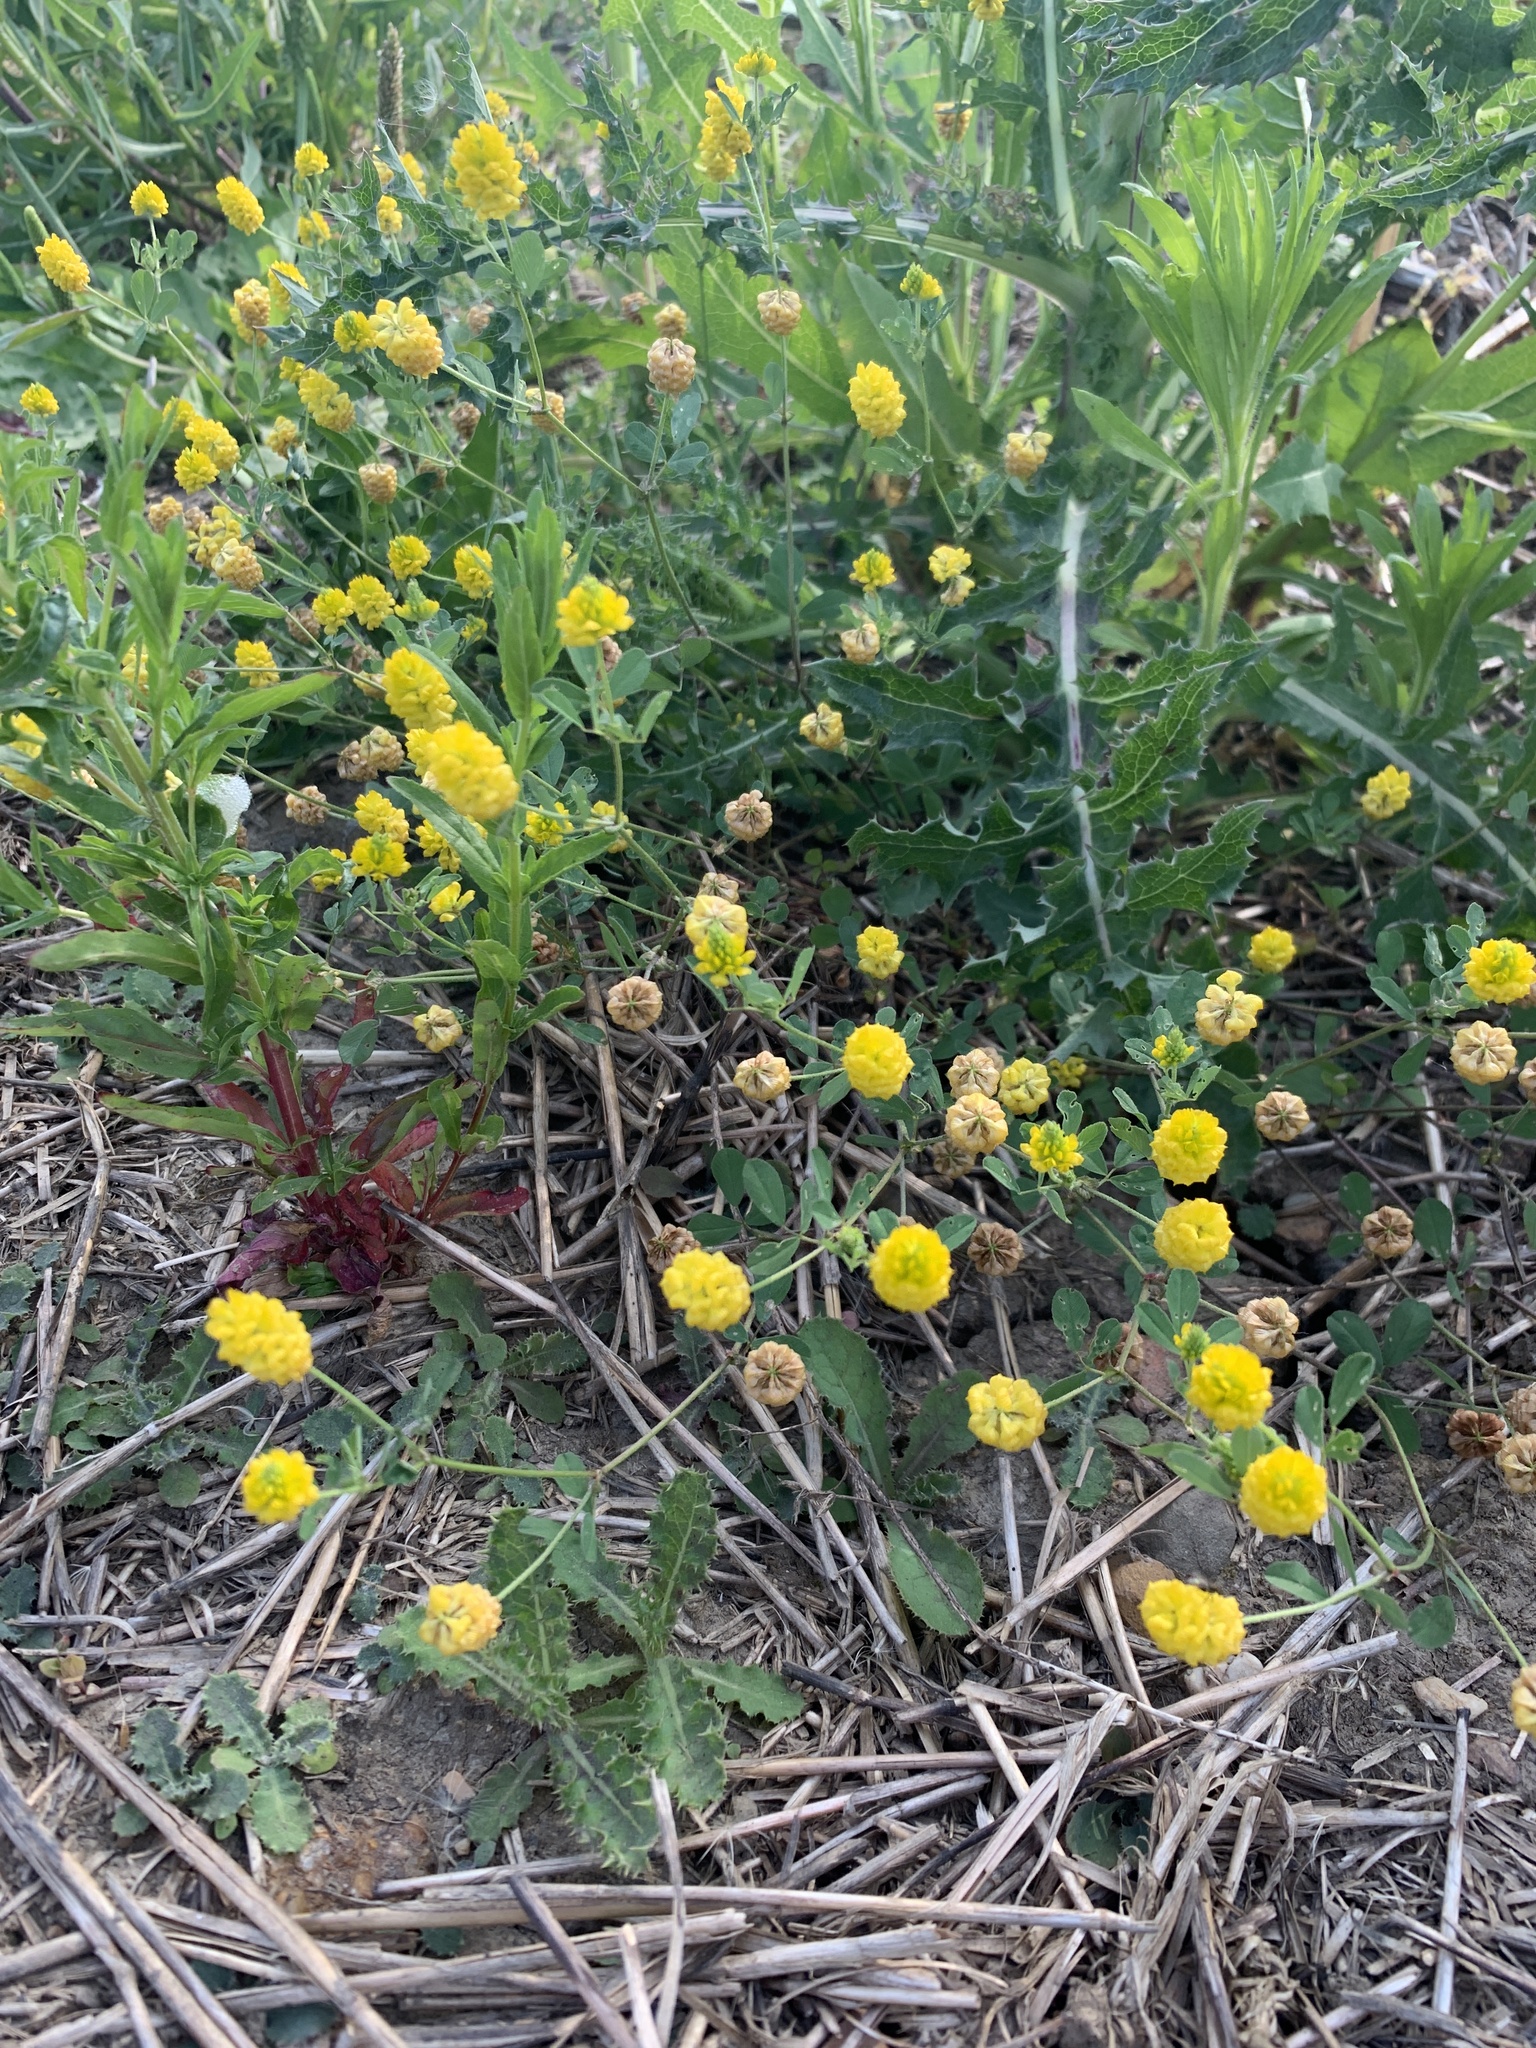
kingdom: Plantae
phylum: Tracheophyta
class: Magnoliopsida
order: Fabales
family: Fabaceae
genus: Trifolium
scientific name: Trifolium campestre
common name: Field clover
